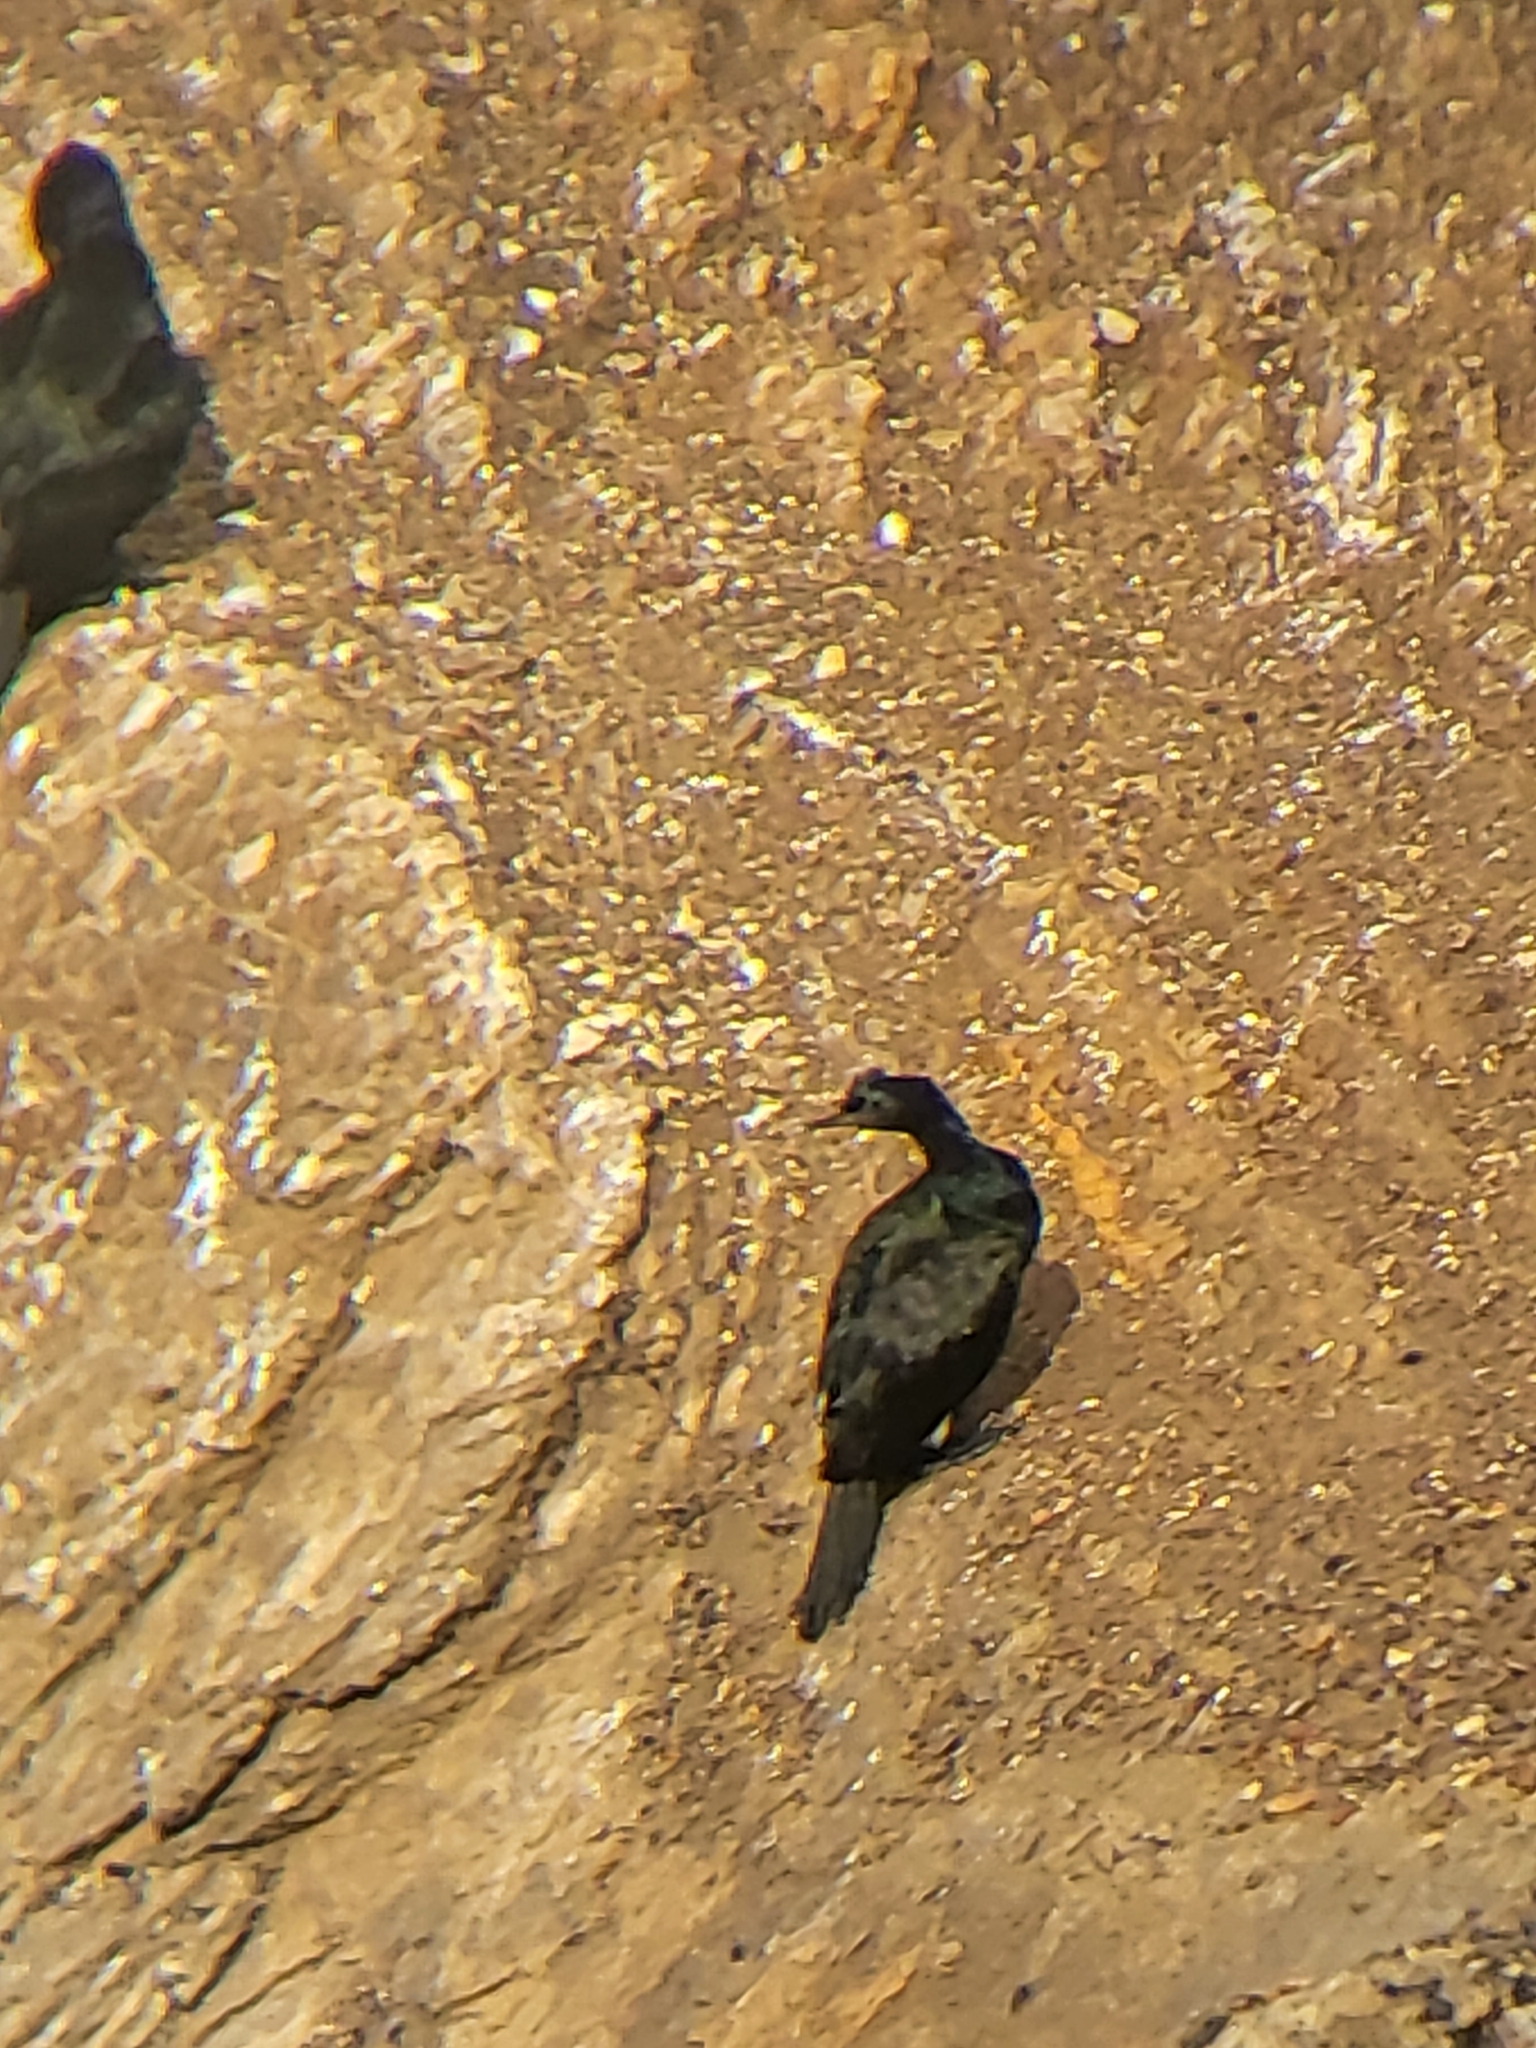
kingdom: Animalia
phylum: Chordata
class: Aves
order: Suliformes
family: Phalacrocoracidae
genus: Phalacrocorax
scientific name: Phalacrocorax pelagicus
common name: Pelagic cormorant
